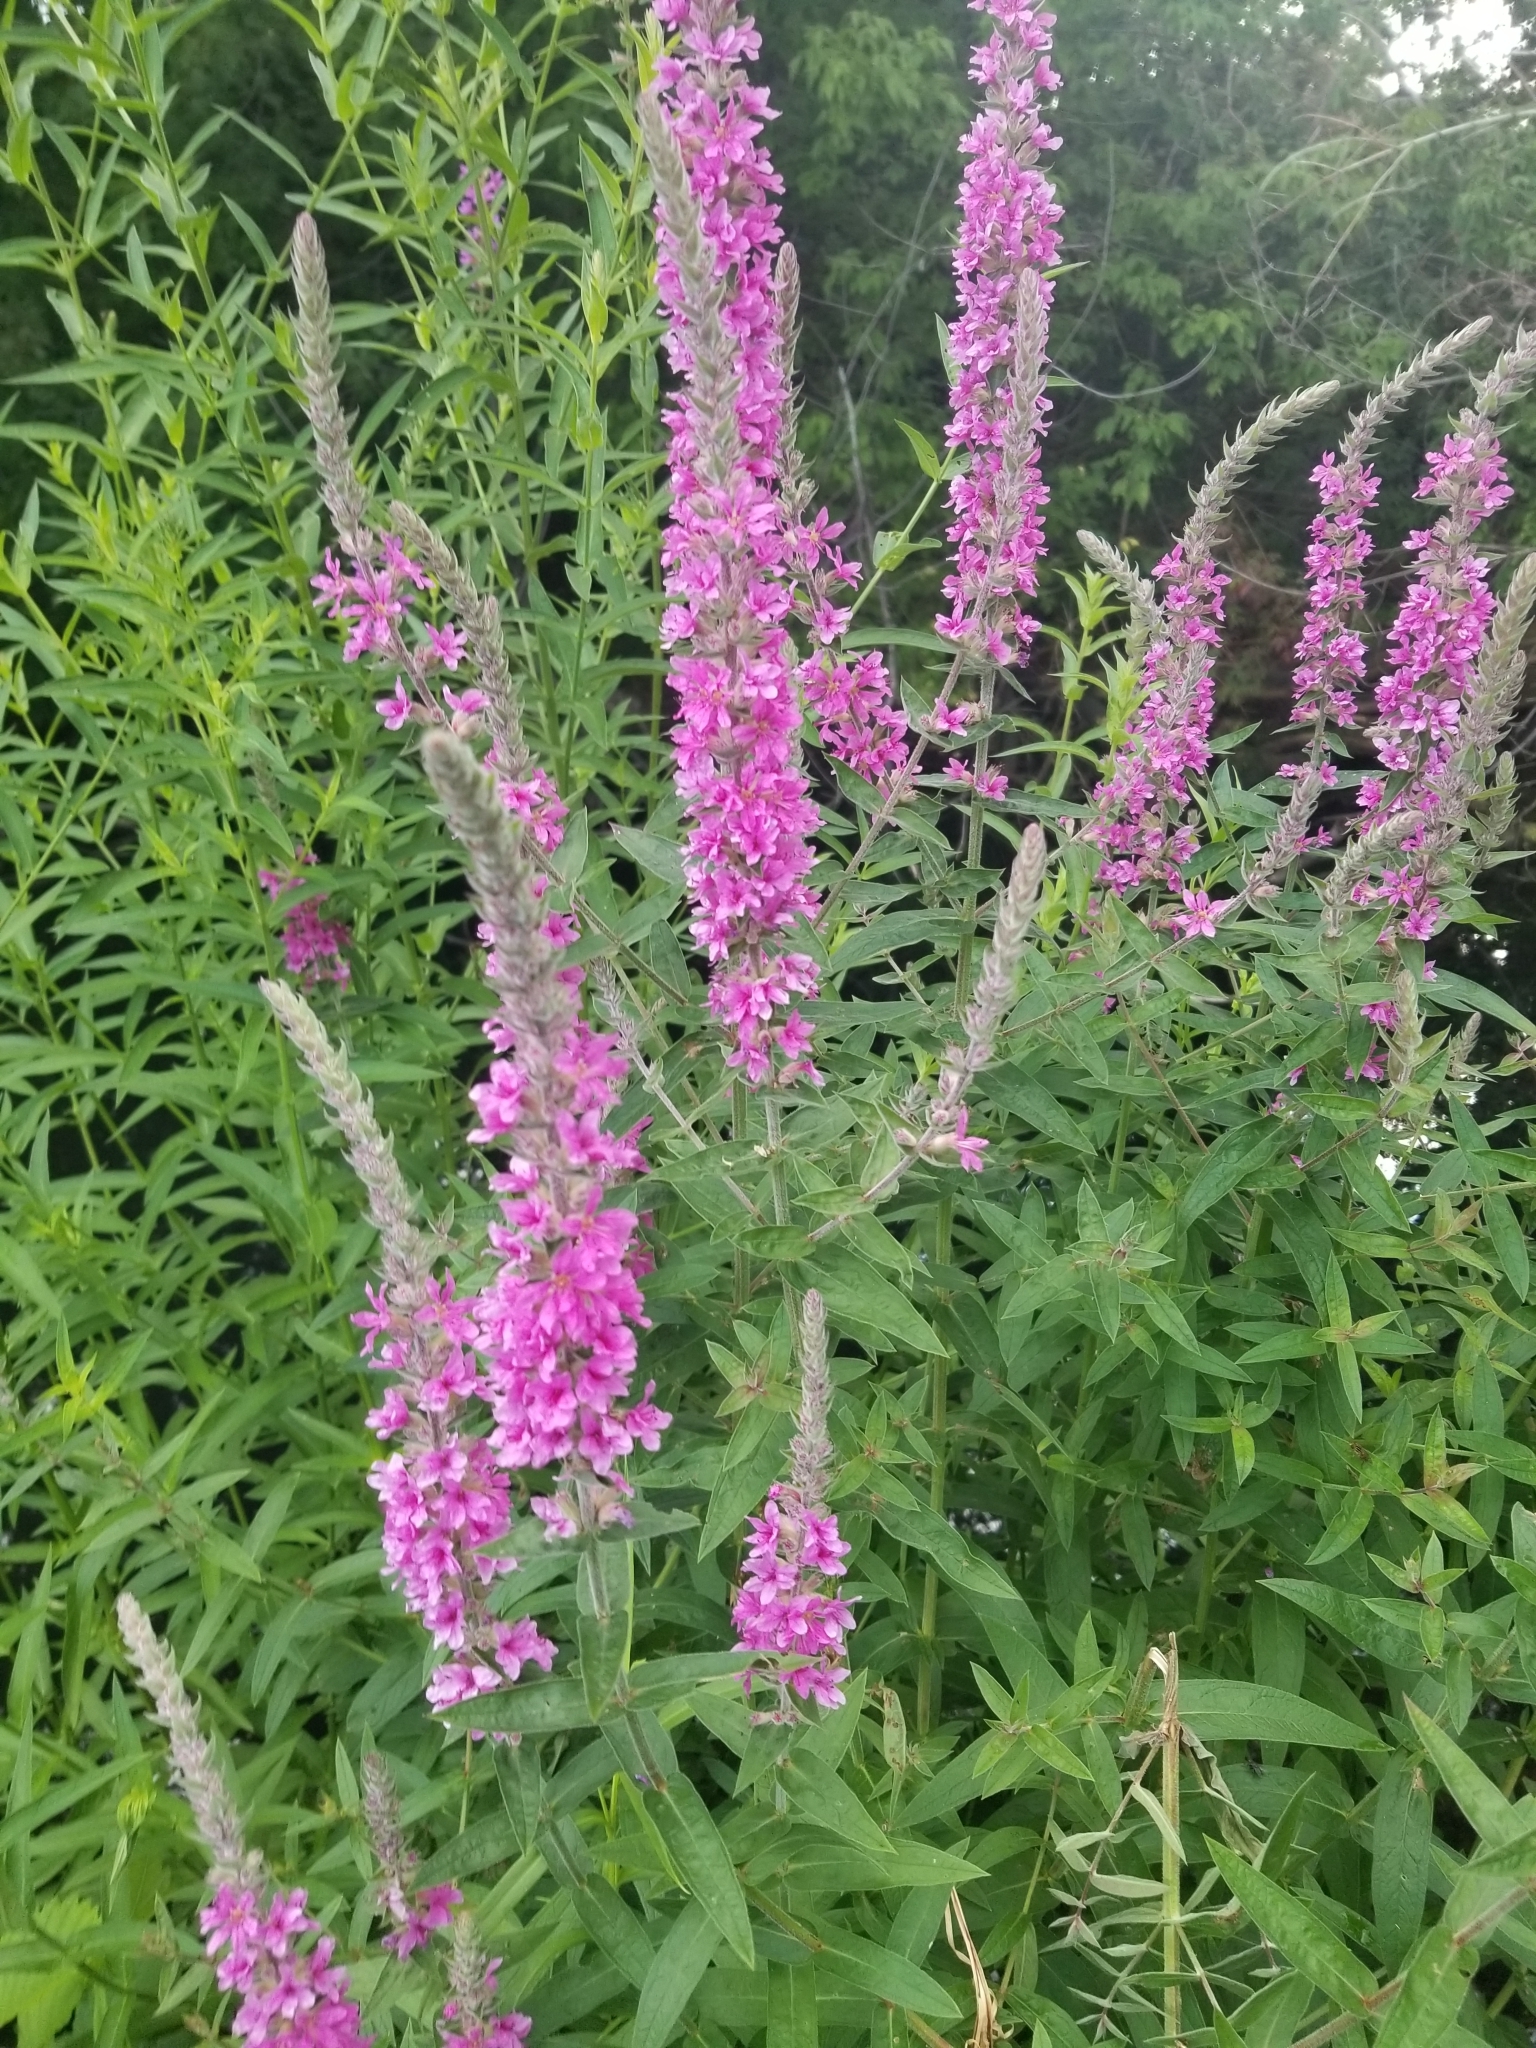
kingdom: Plantae
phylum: Tracheophyta
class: Magnoliopsida
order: Myrtales
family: Lythraceae
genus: Lythrum
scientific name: Lythrum salicaria
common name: Purple loosestrife
